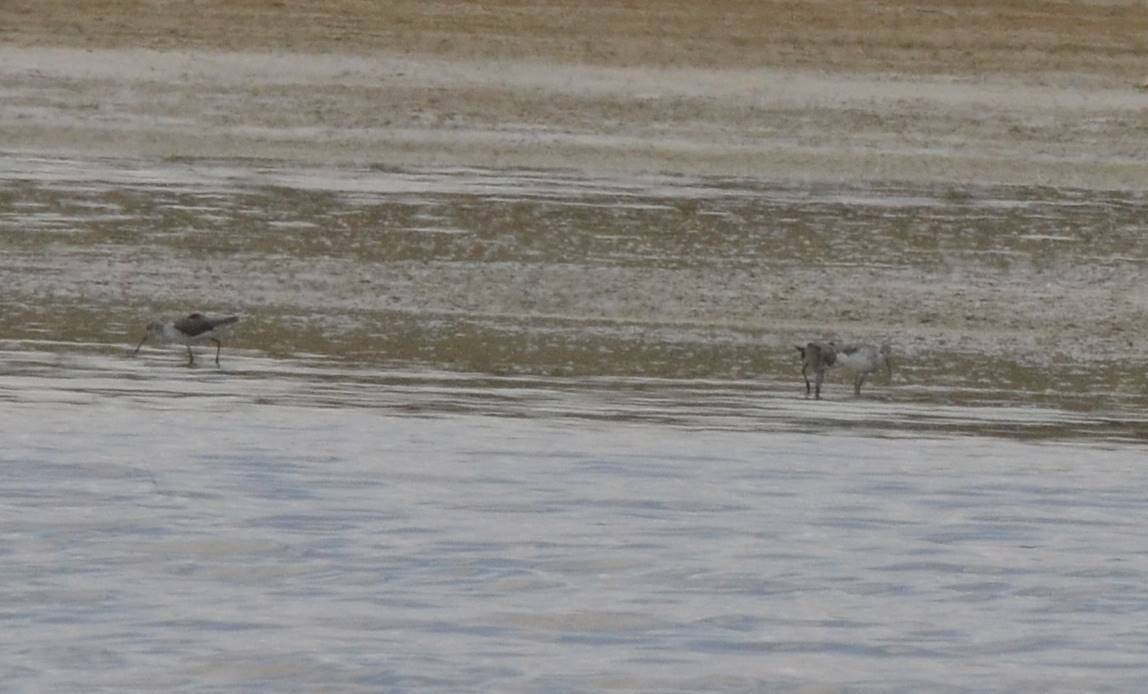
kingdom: Animalia
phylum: Chordata
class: Aves
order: Charadriiformes
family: Scolopacidae
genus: Tringa
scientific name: Tringa nebularia
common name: Common greenshank
